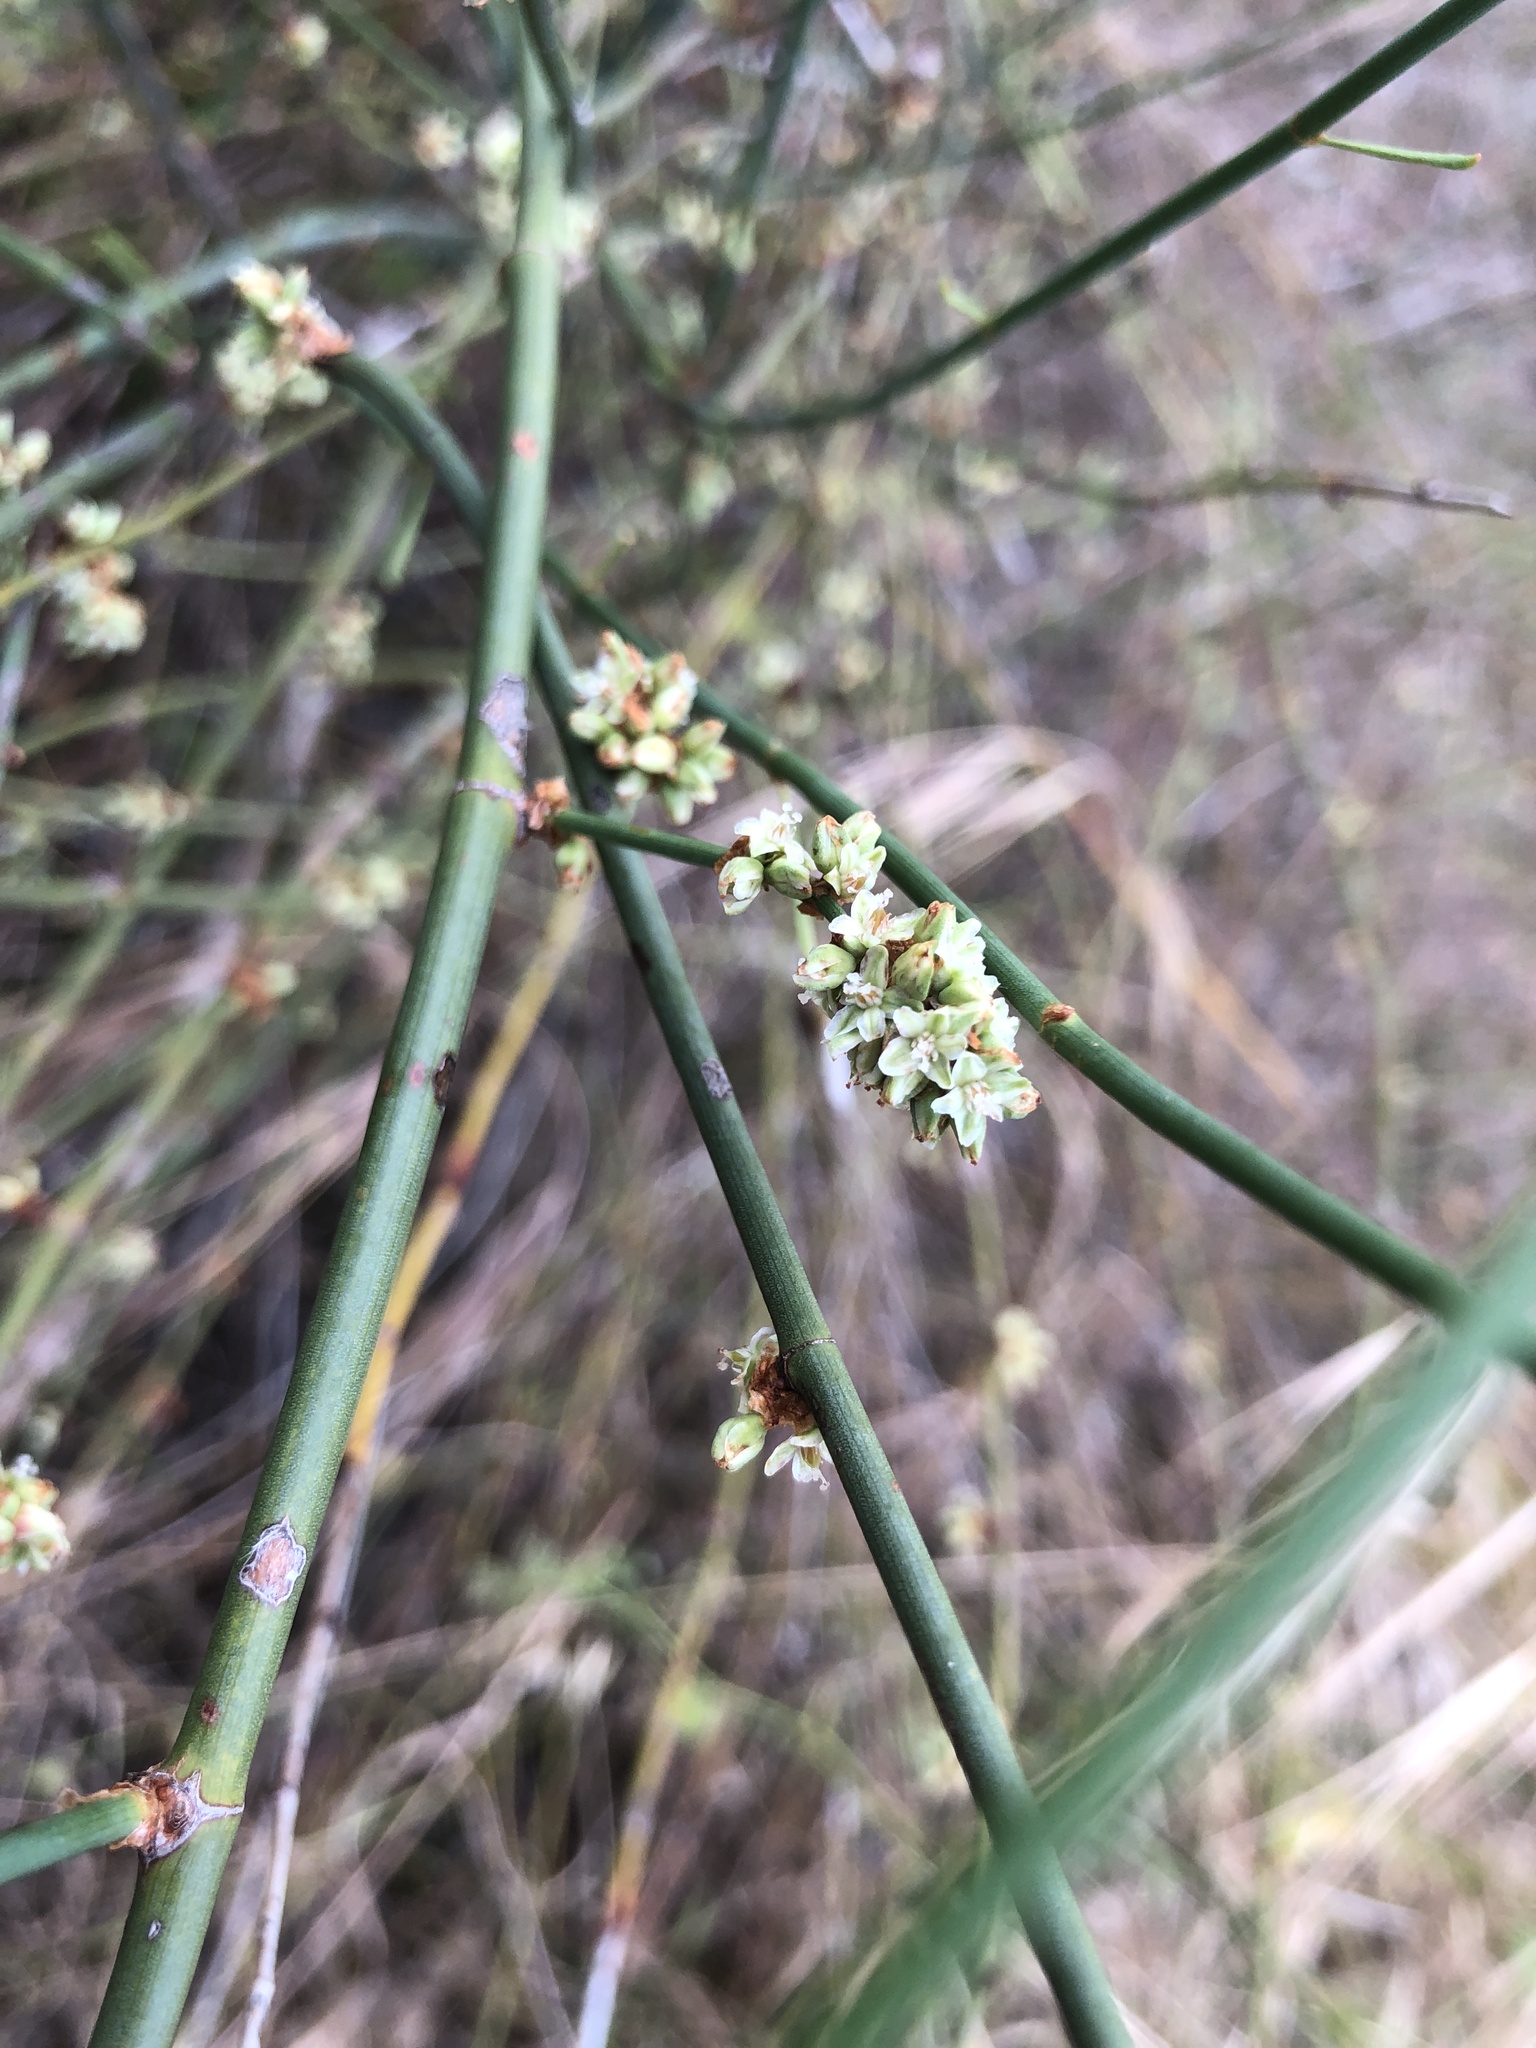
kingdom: Plantae
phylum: Tracheophyta
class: Magnoliopsida
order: Caryophyllales
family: Polygonaceae
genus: Duma
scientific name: Duma florulenta
